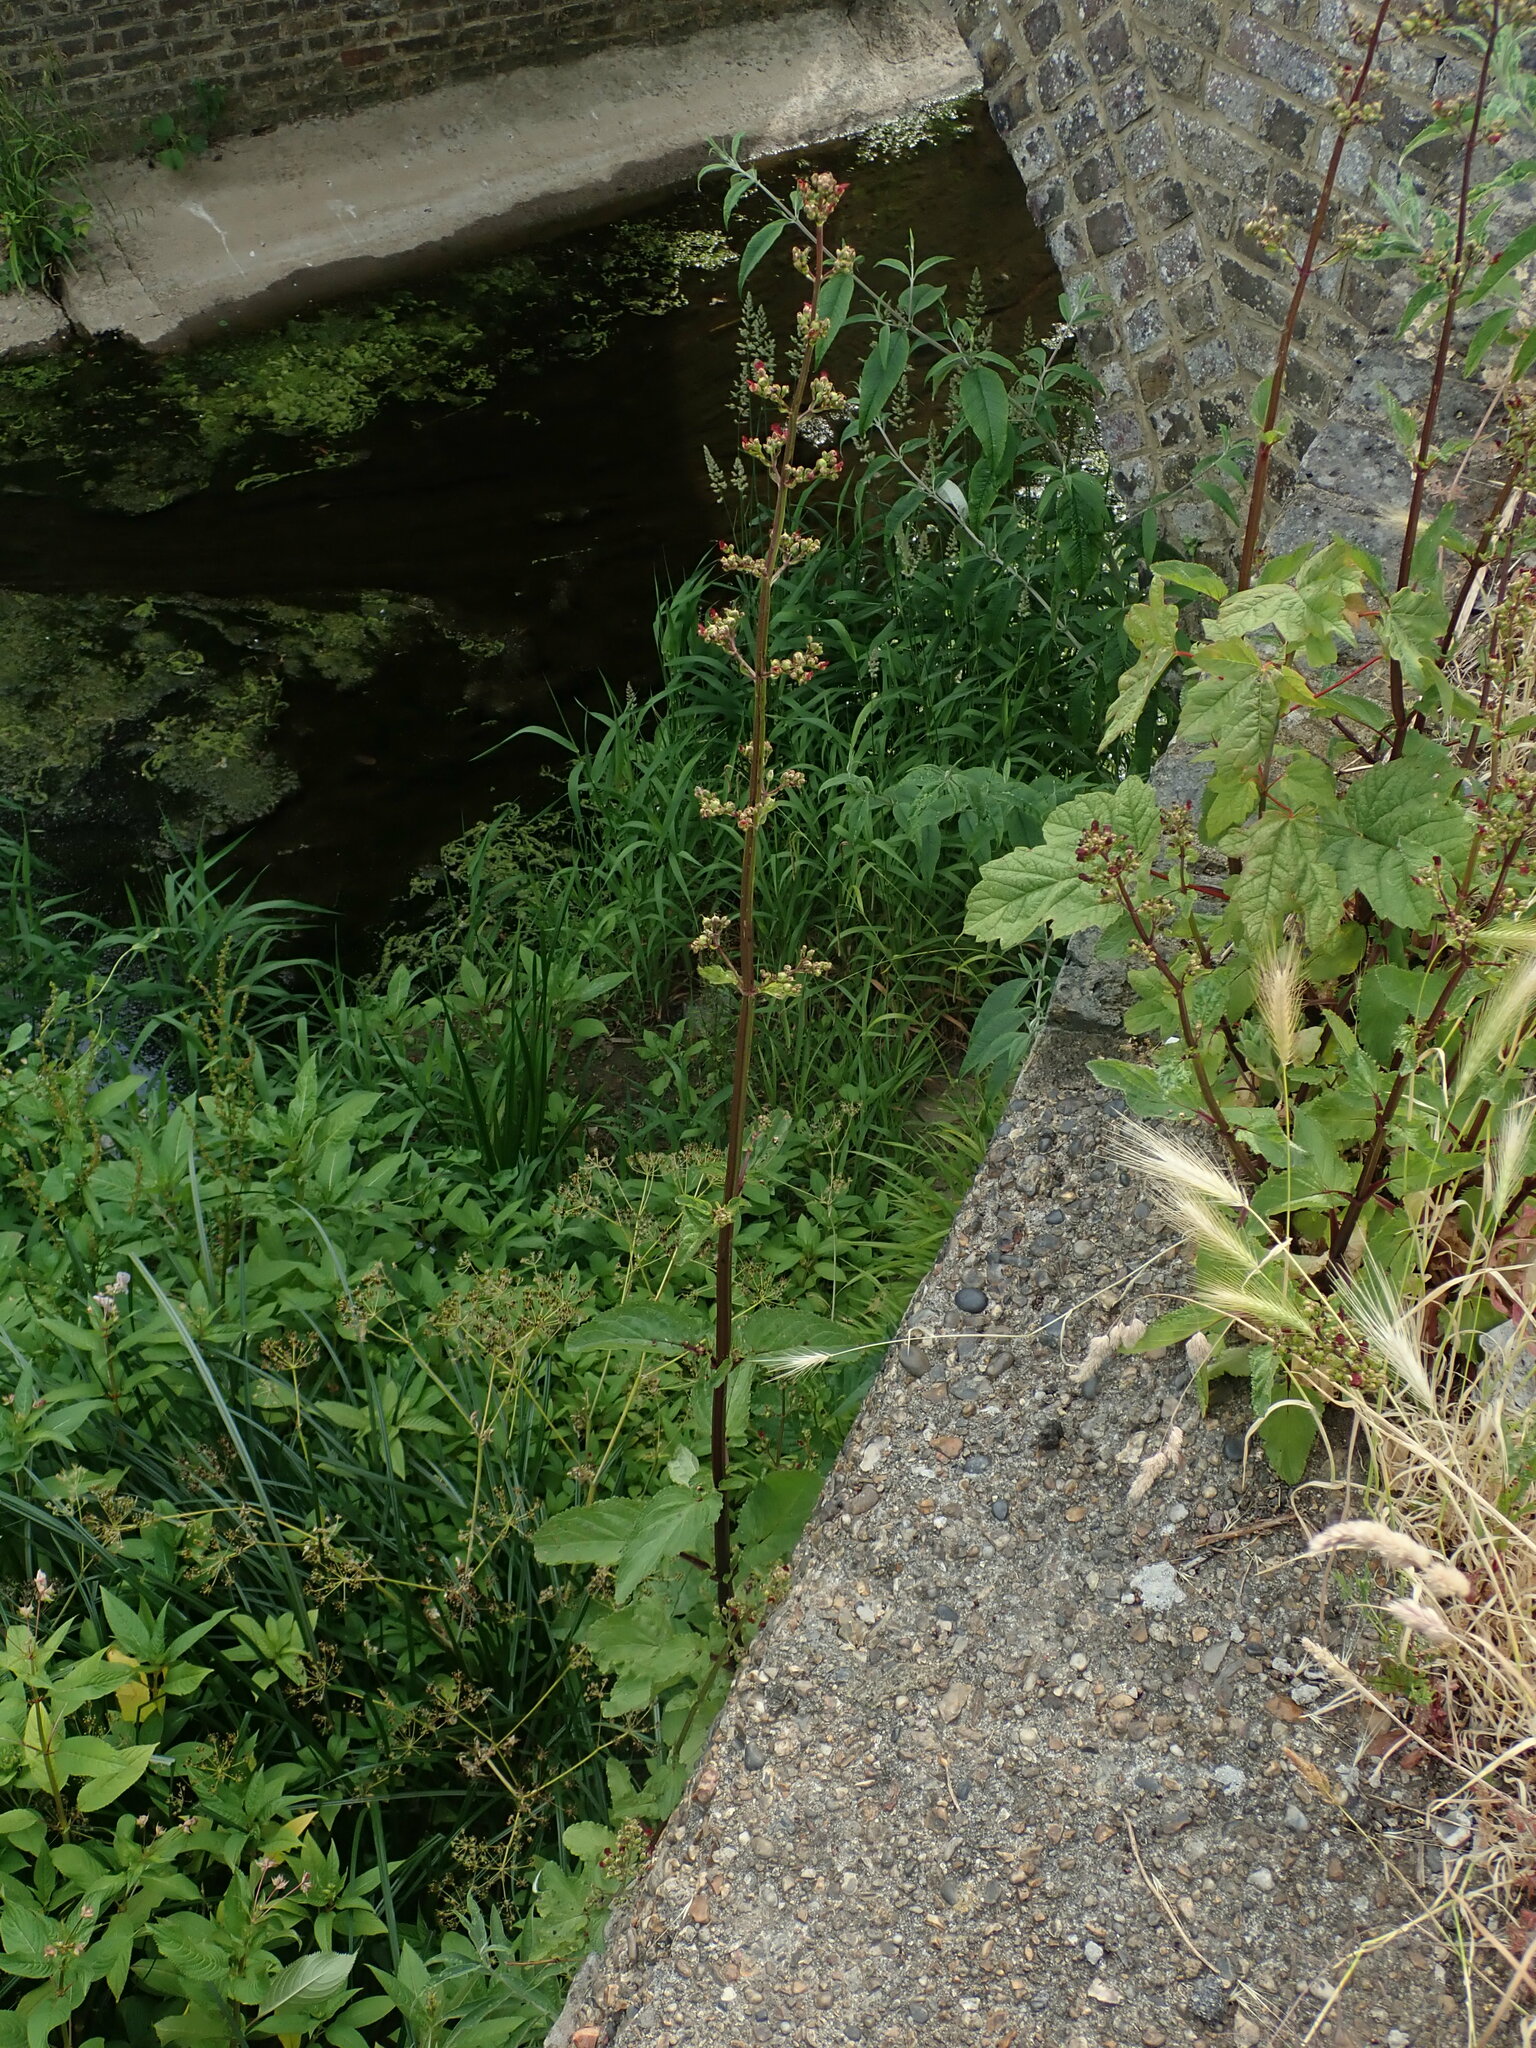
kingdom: Plantae
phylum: Tracheophyta
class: Magnoliopsida
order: Lamiales
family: Scrophulariaceae
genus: Scrophularia
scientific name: Scrophularia auriculata
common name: Water betony
